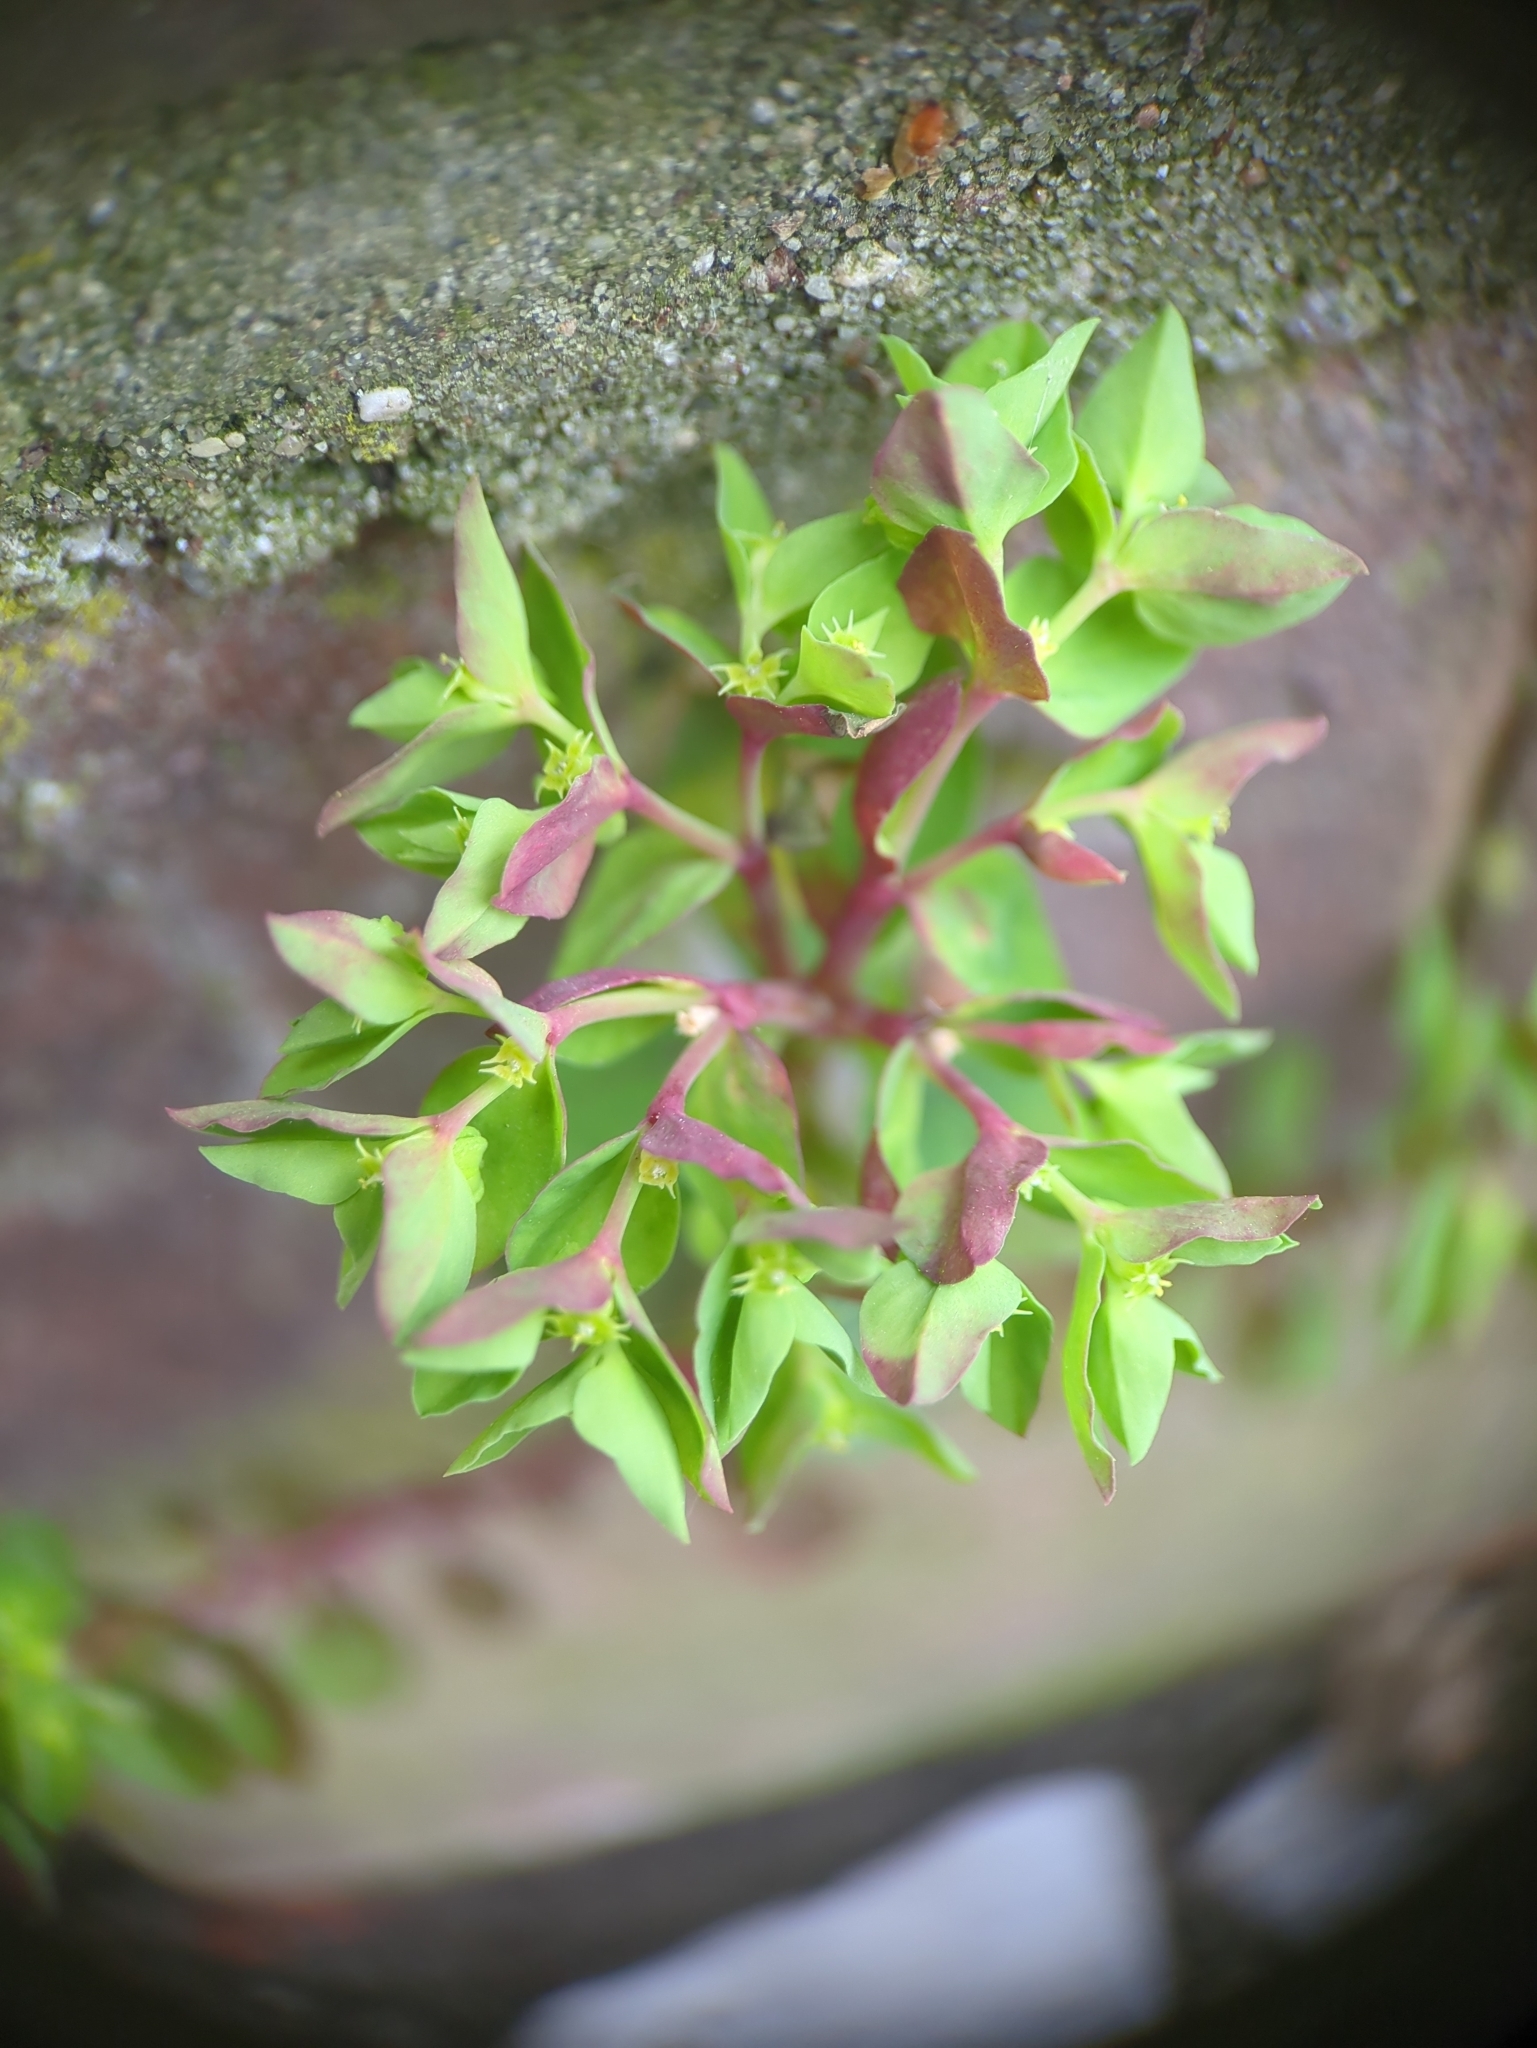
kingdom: Plantae
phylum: Tracheophyta
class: Magnoliopsida
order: Malpighiales
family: Euphorbiaceae
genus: Euphorbia
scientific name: Euphorbia peplus
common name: Petty spurge
